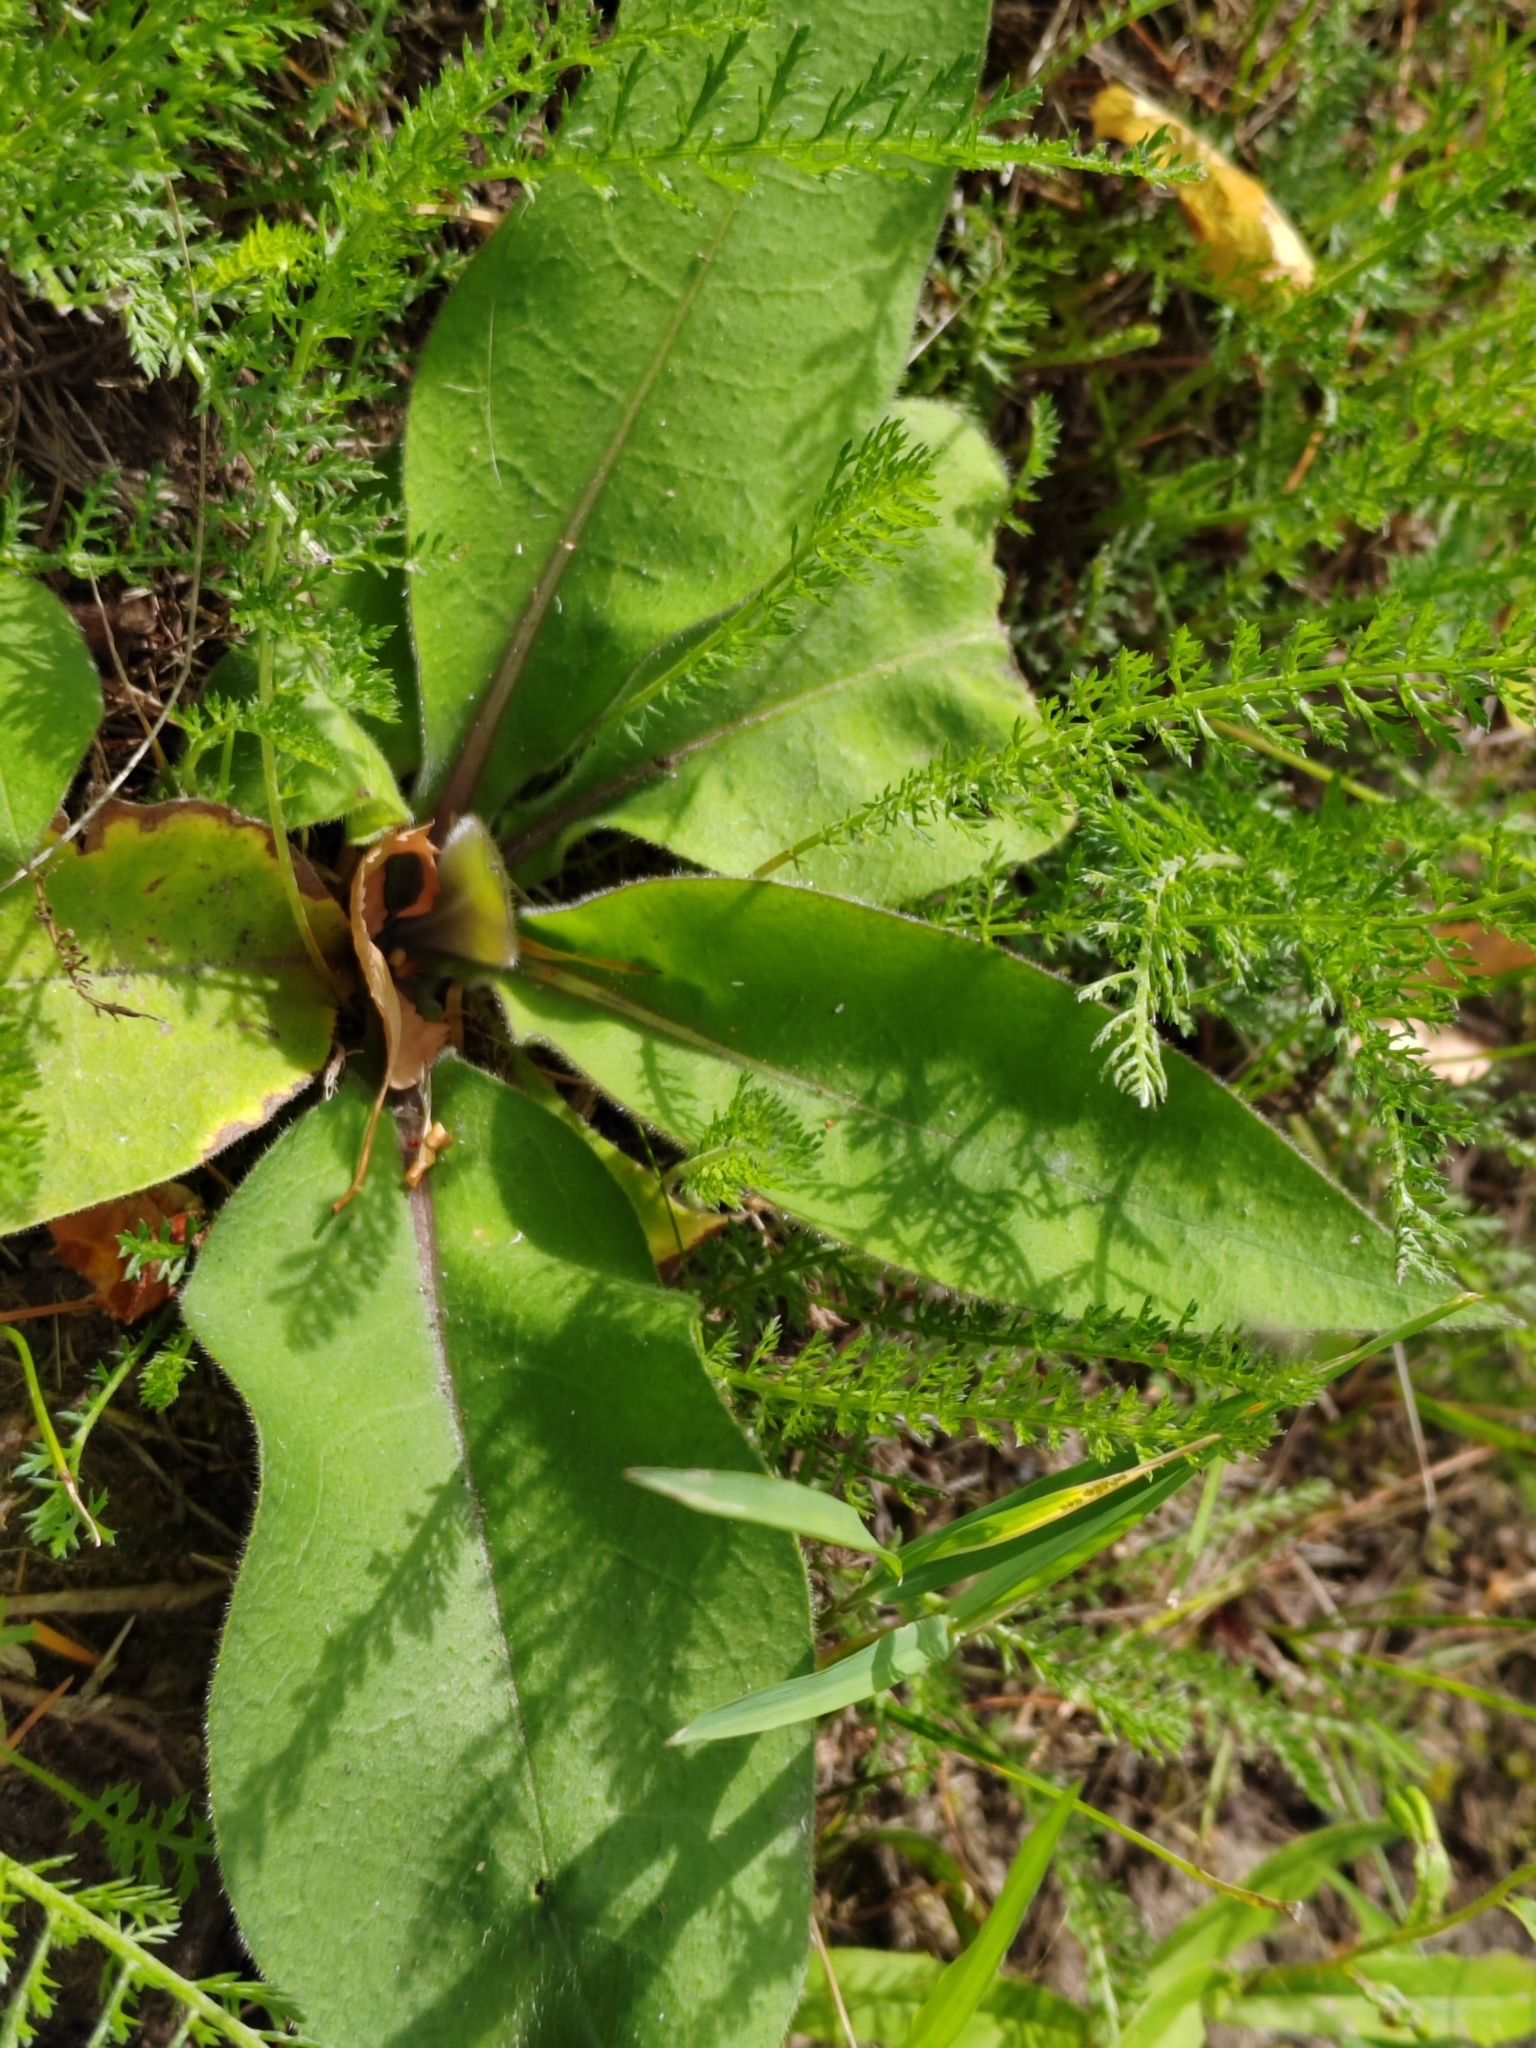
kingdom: Plantae
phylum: Tracheophyta
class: Magnoliopsida
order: Boraginales
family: Boraginaceae
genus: Pulmonaria
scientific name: Pulmonaria mollis
